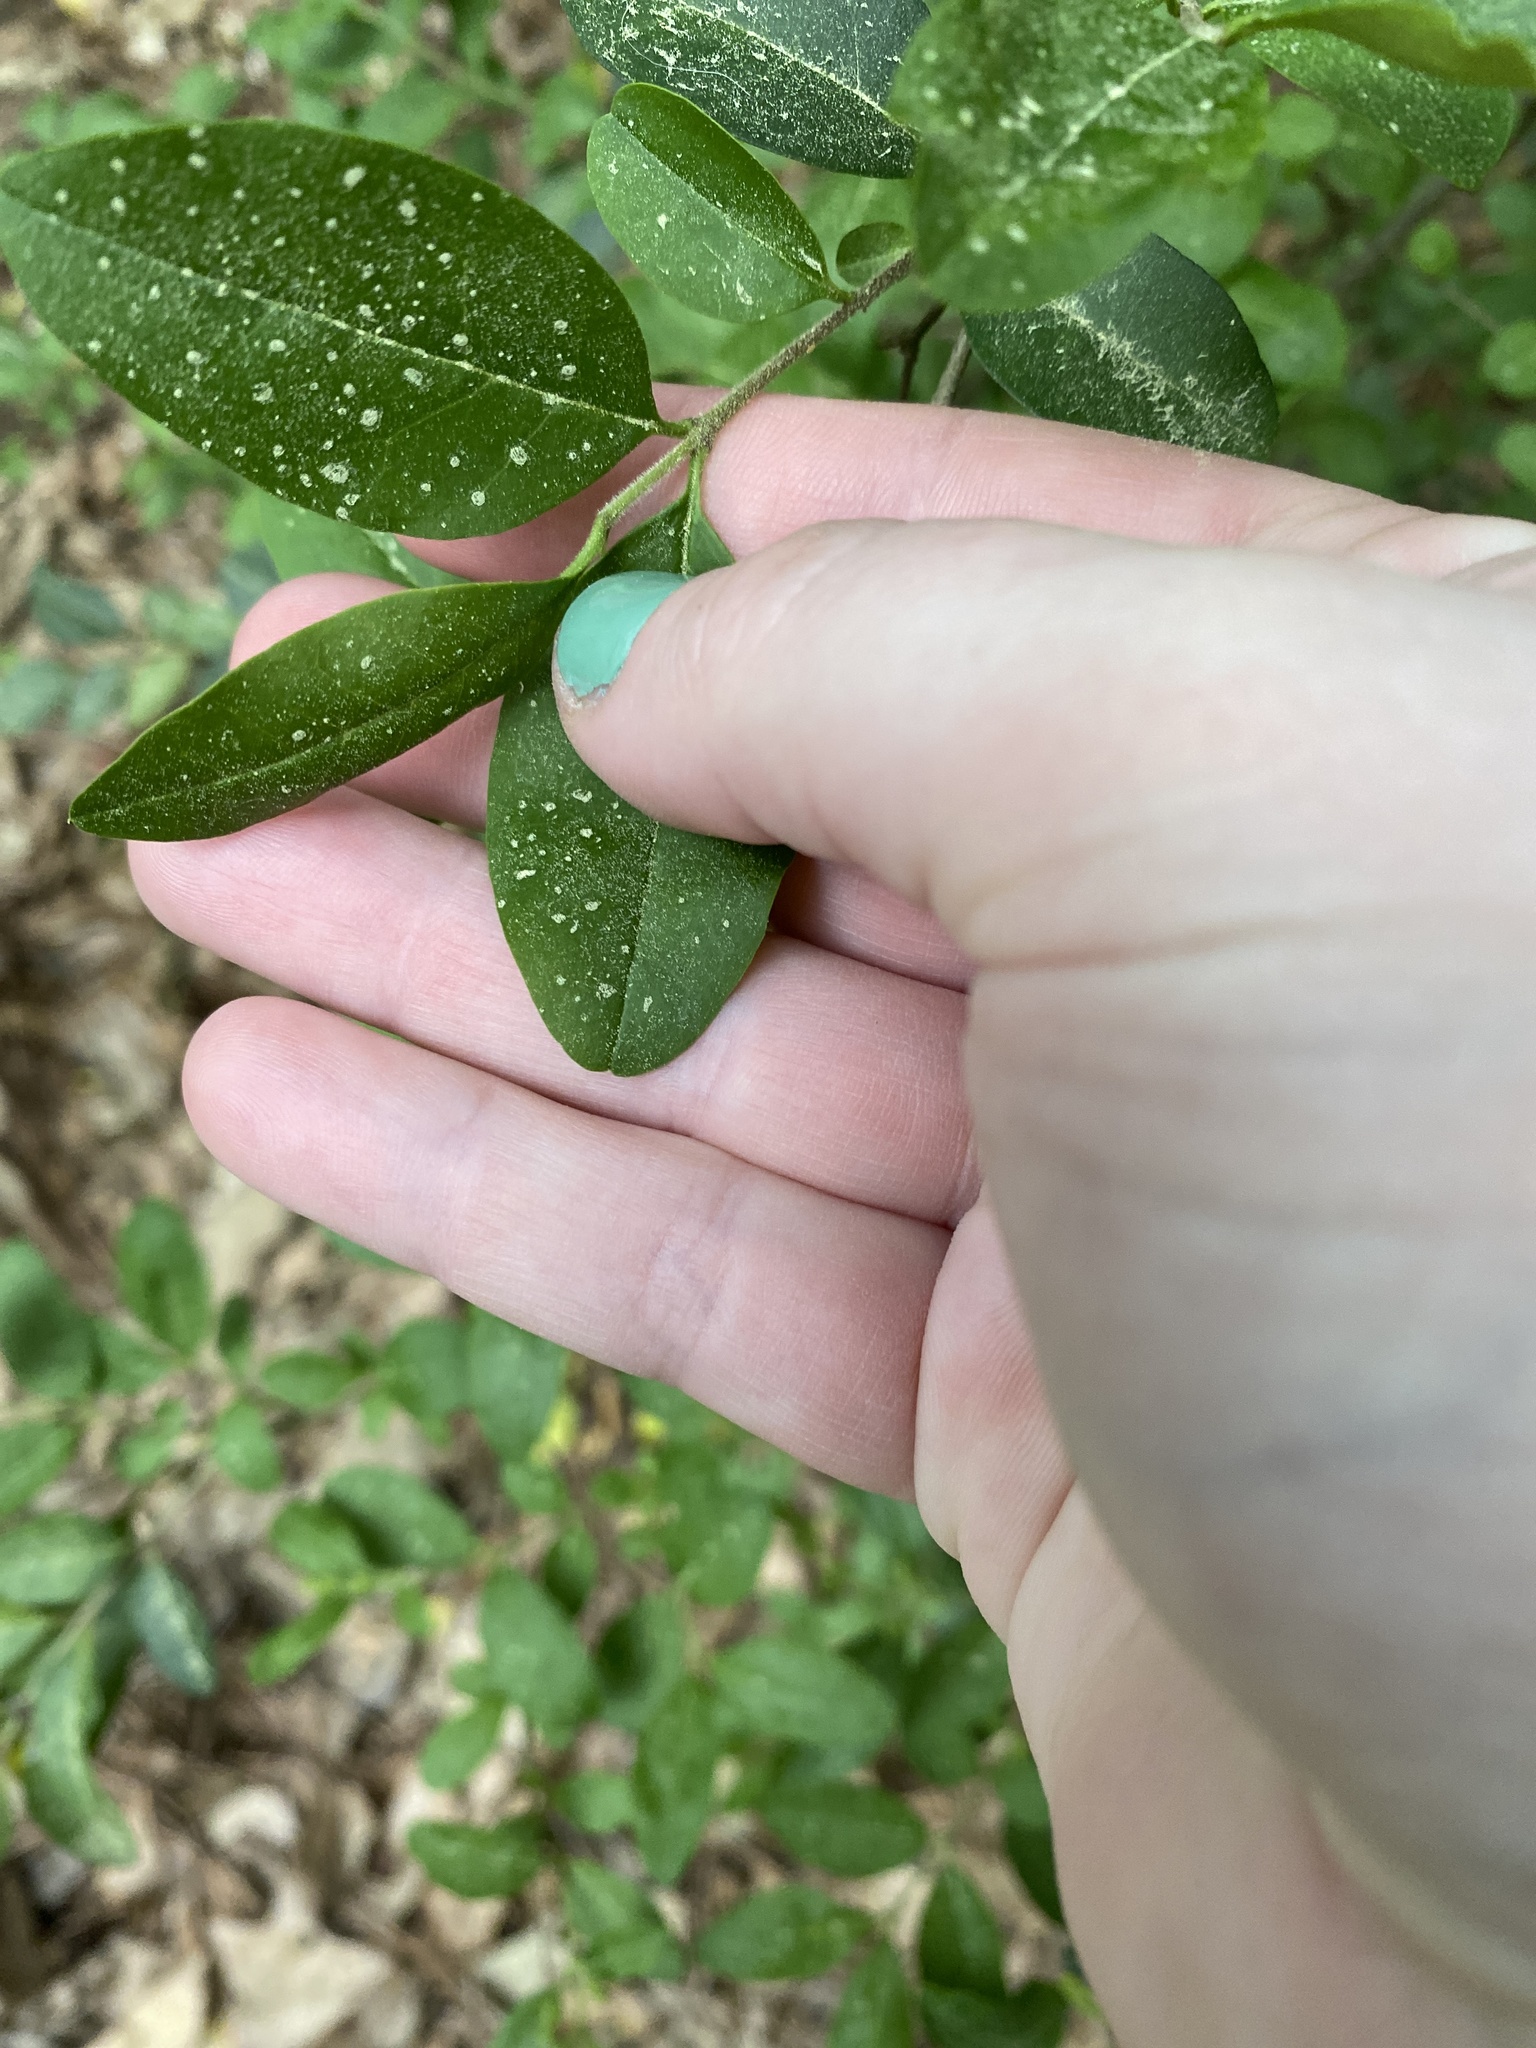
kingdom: Plantae
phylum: Tracheophyta
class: Magnoliopsida
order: Lamiales
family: Oleaceae
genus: Ligustrum
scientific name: Ligustrum sinense
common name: Chinese privet
